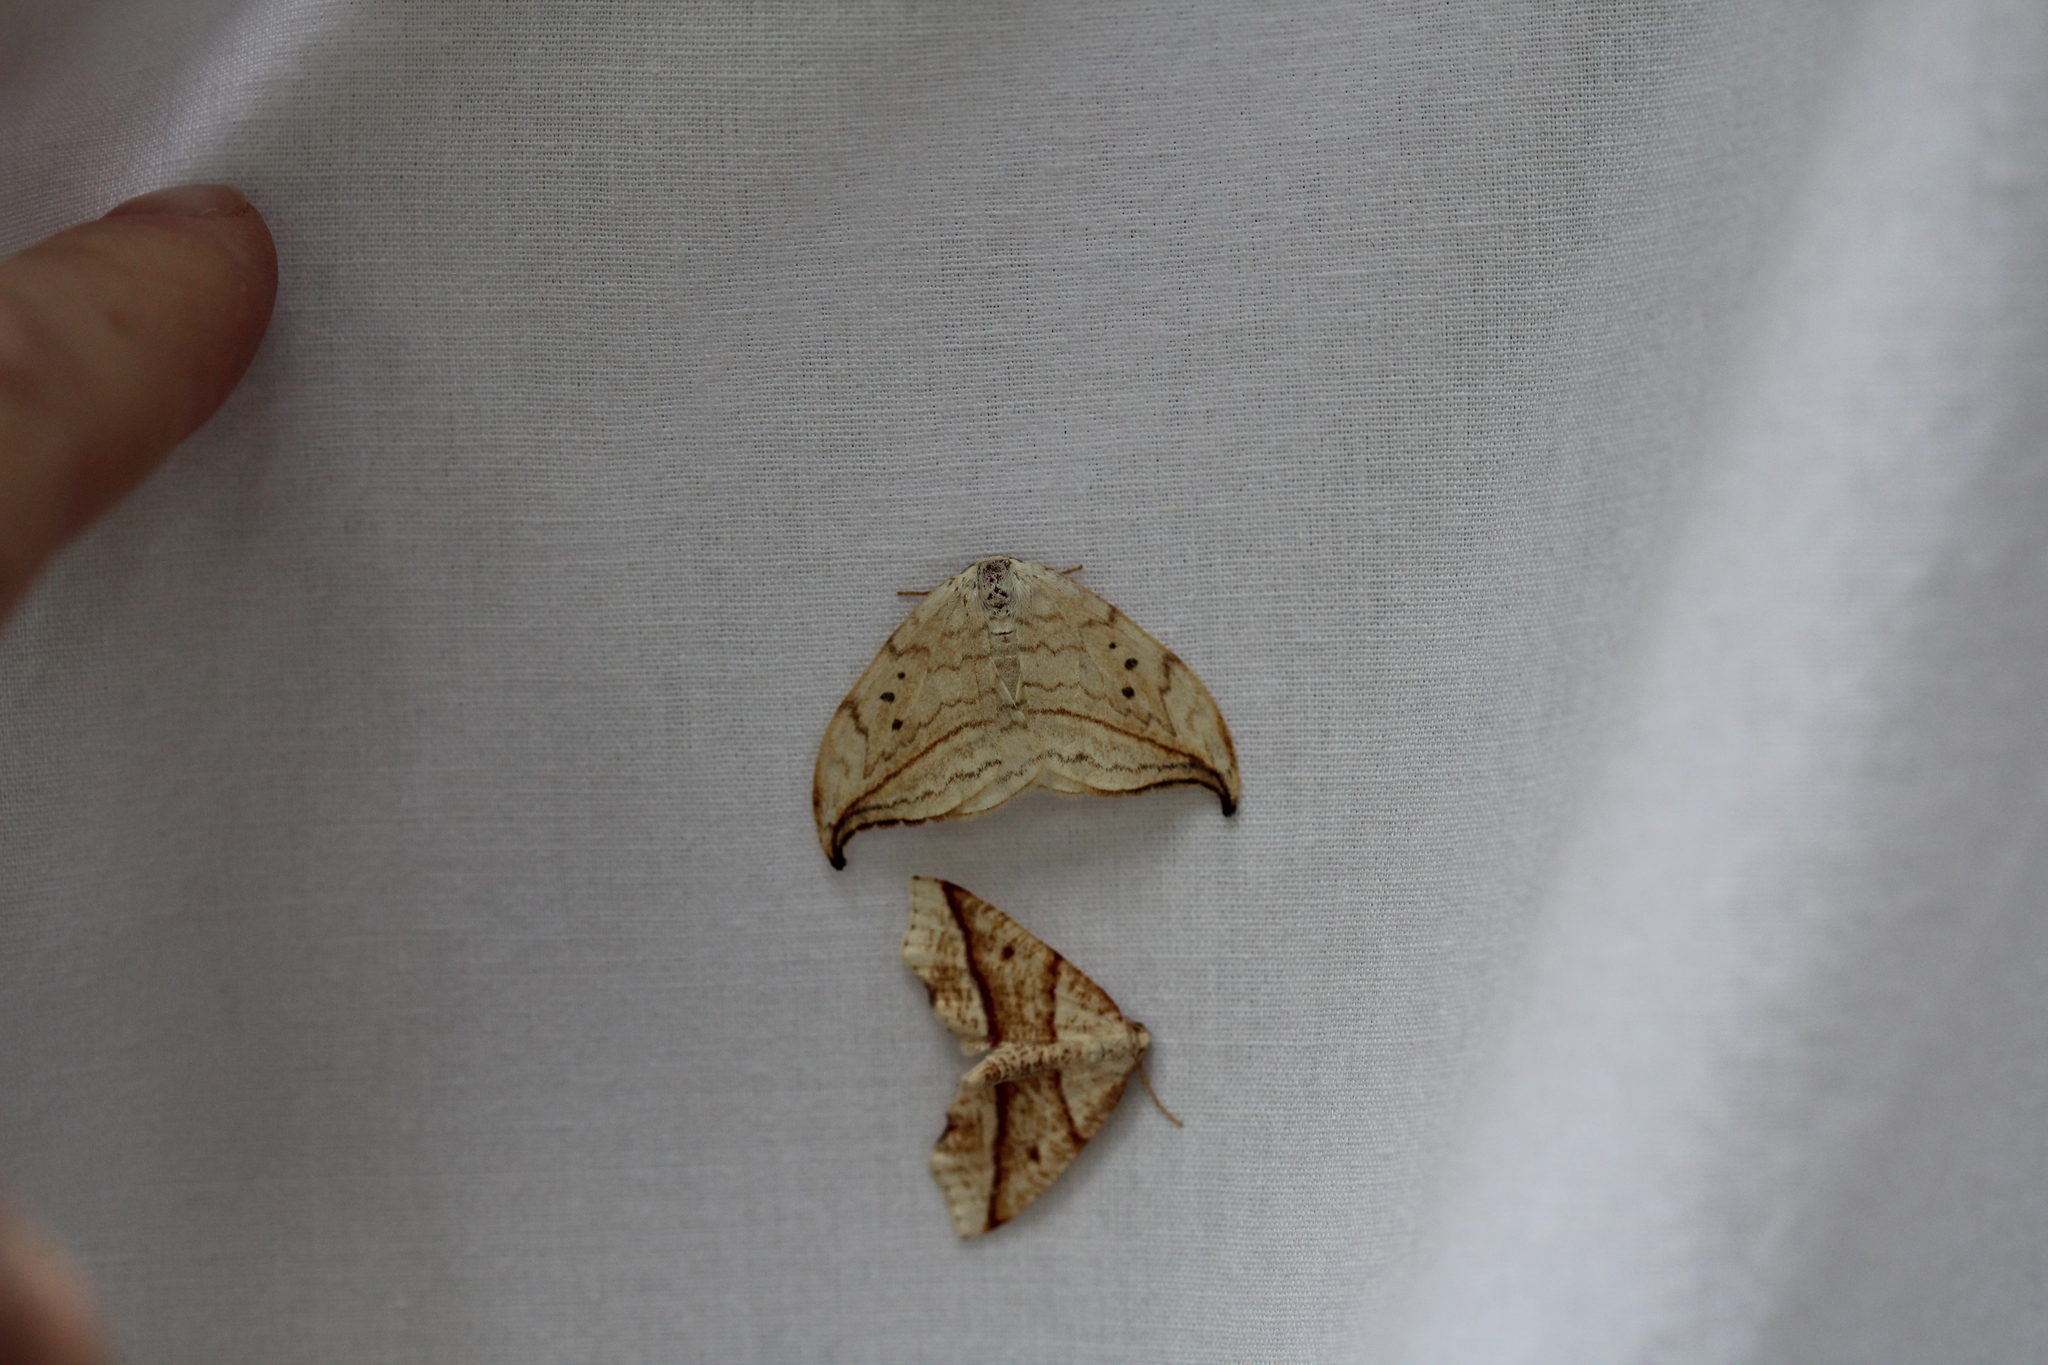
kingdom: Animalia
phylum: Arthropoda
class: Insecta
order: Lepidoptera
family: Drepanidae
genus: Drepana
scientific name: Drepana arcuata
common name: Arched hooktip moth
